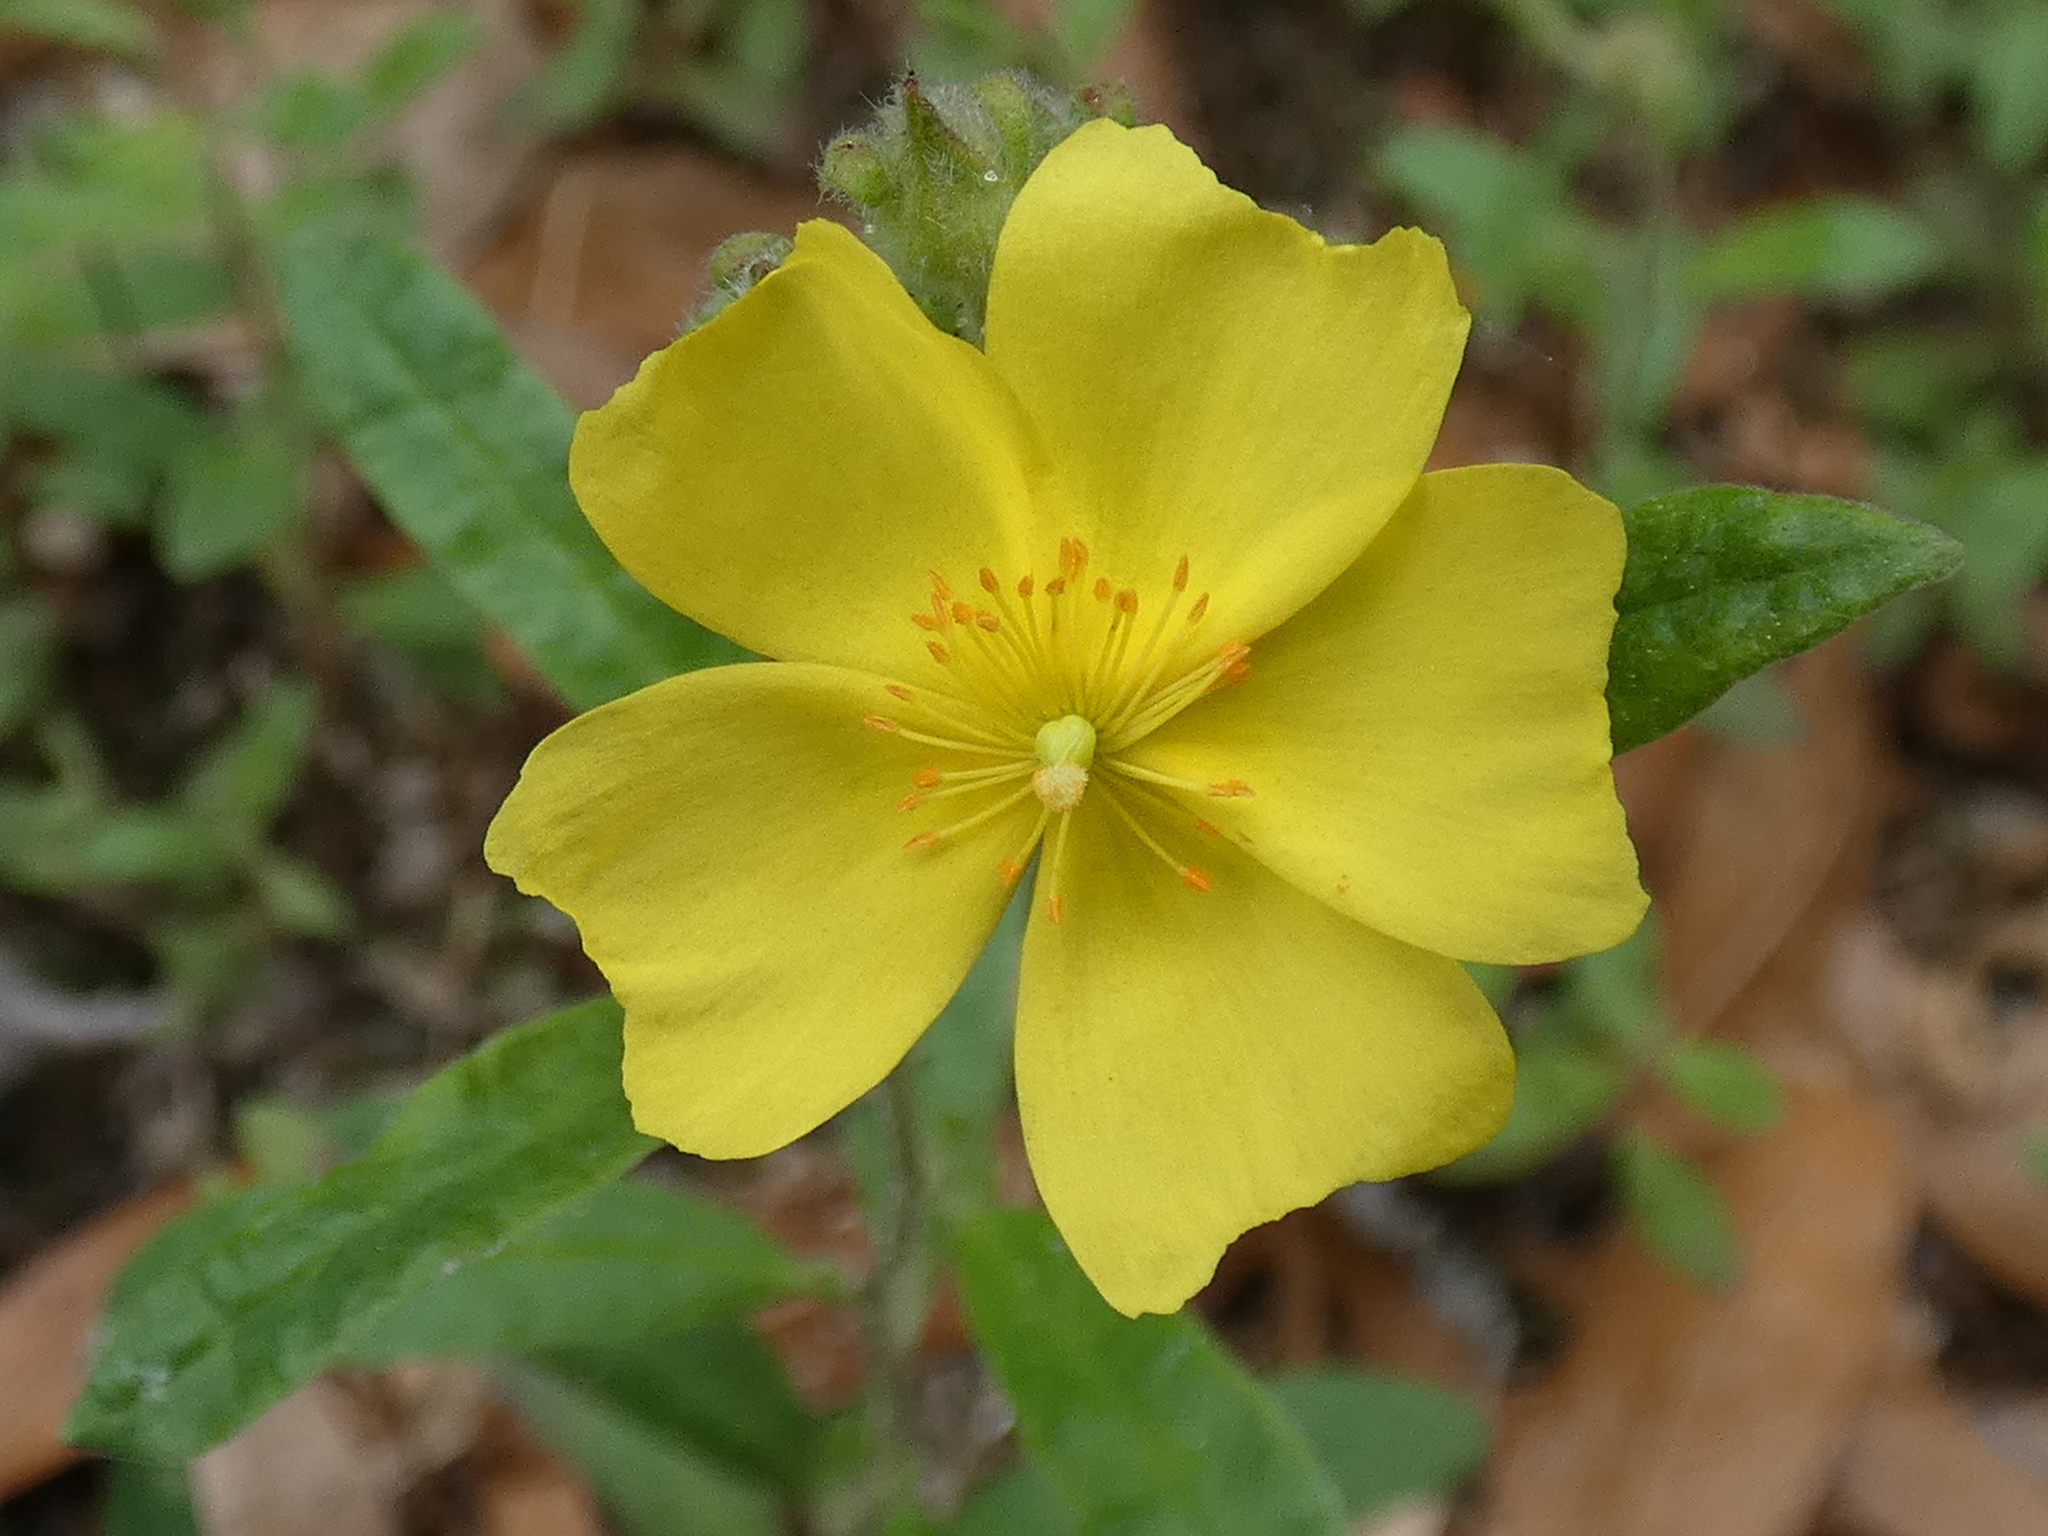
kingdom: Plantae
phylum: Tracheophyta
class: Magnoliopsida
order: Malvales
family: Cistaceae
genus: Crocanthemum
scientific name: Crocanthemum corymbosum
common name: Pinebarren sun-rose
